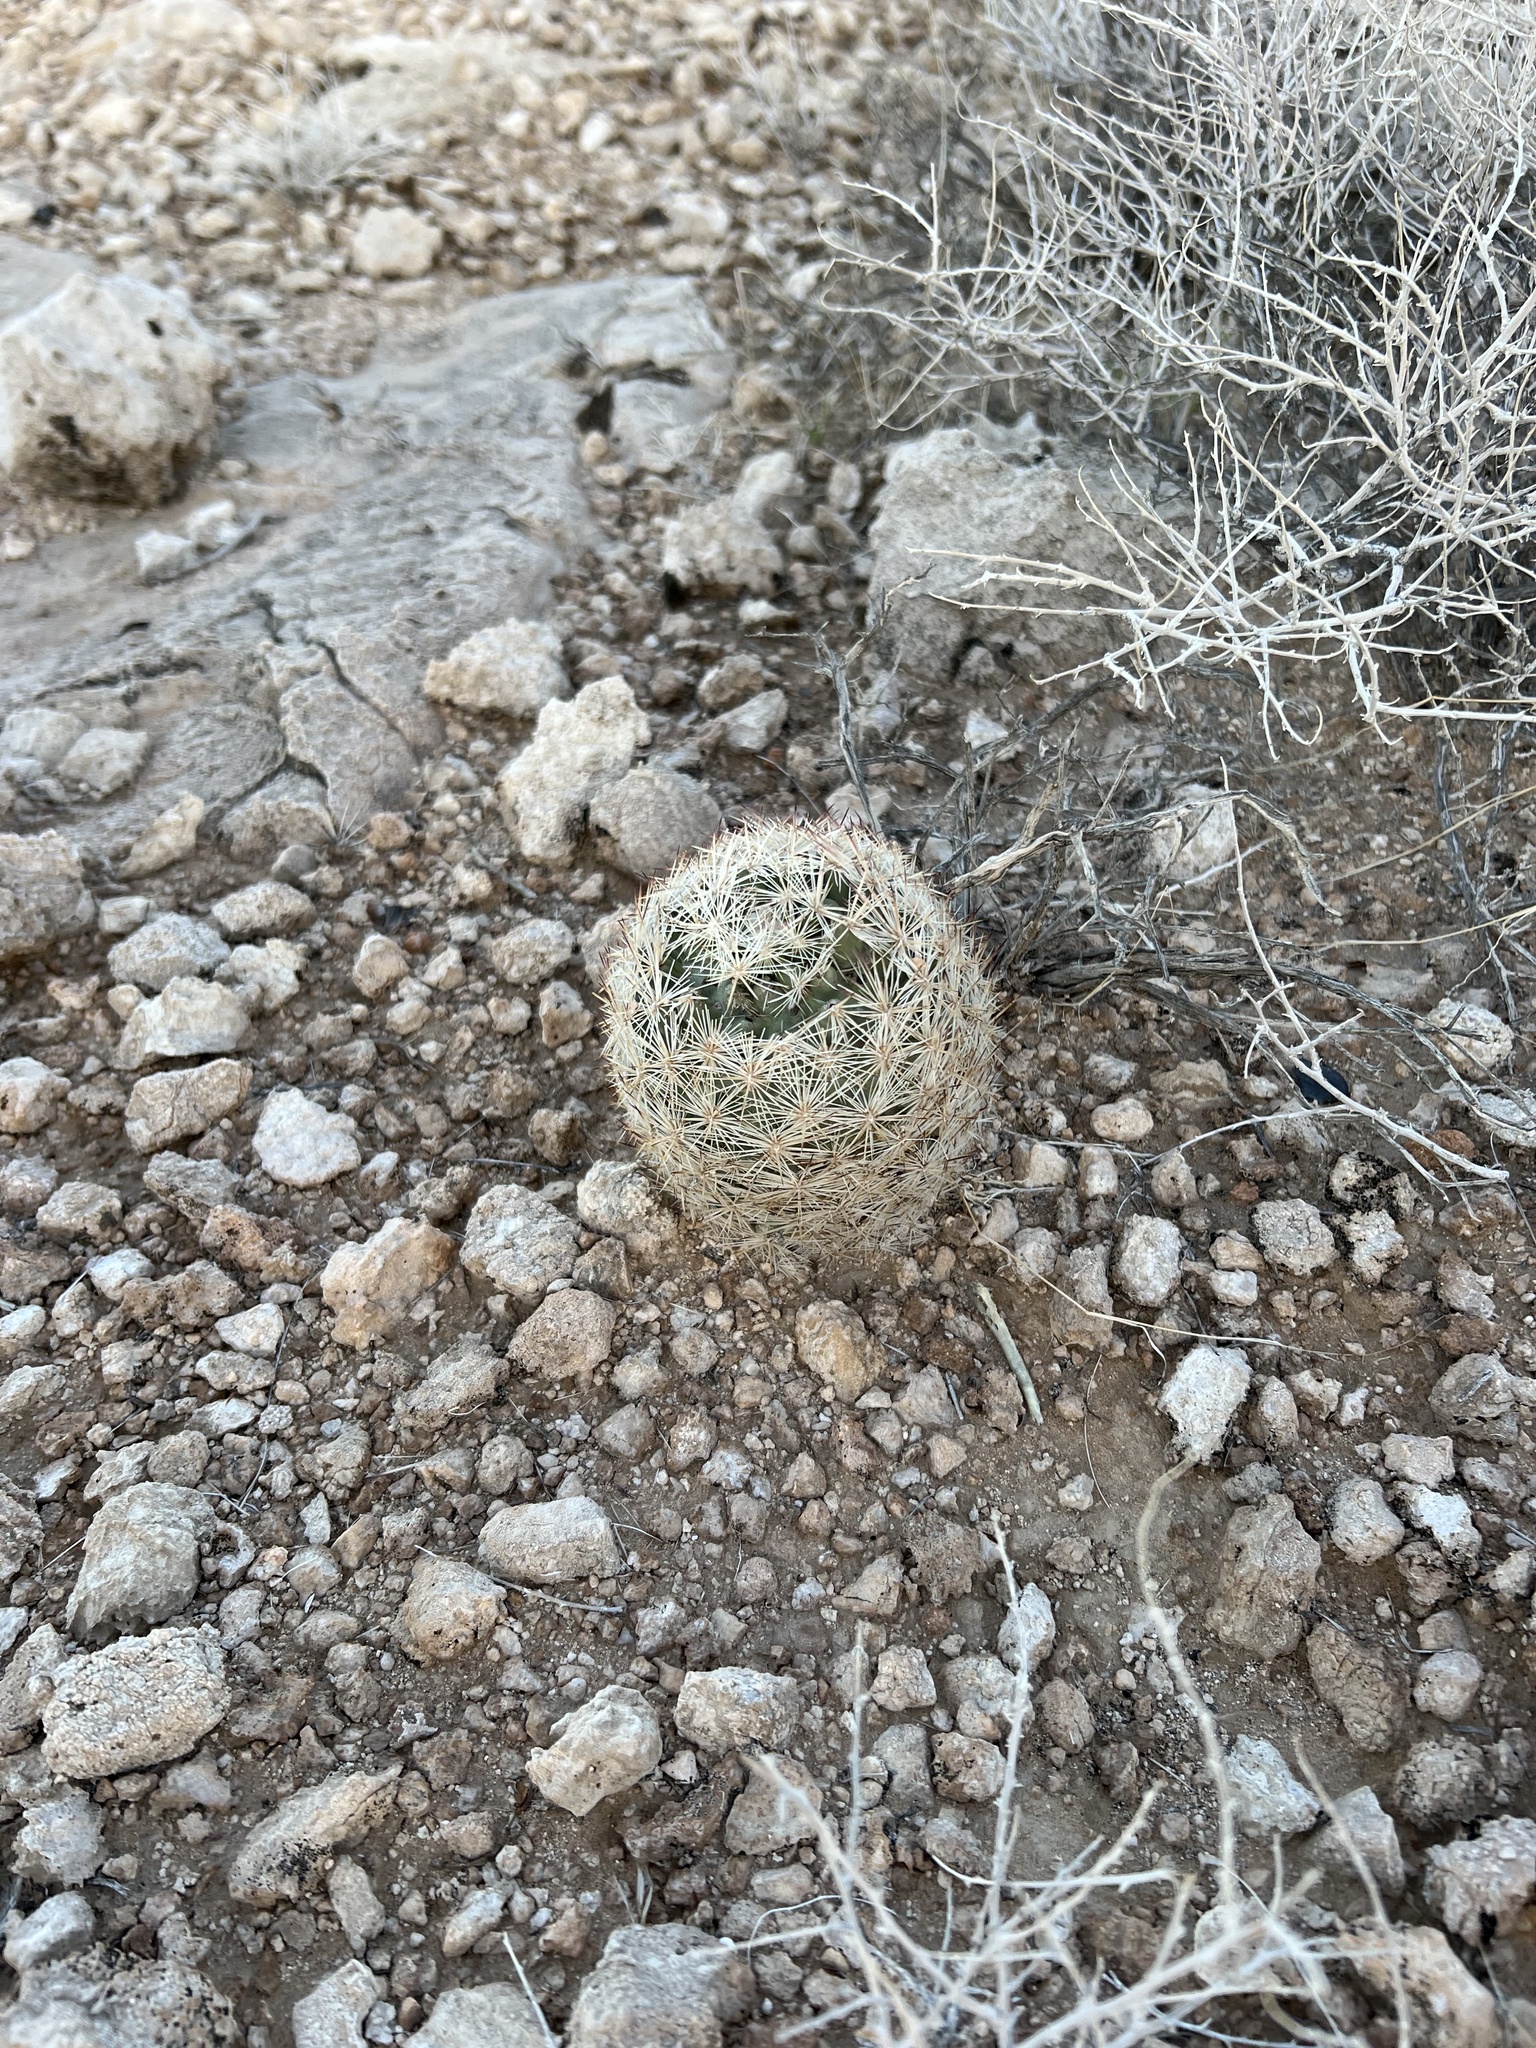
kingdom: Plantae
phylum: Tracheophyta
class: Magnoliopsida
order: Caryophyllales
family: Cactaceae
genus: Pelecyphora
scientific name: Pelecyphora dasyacantha
